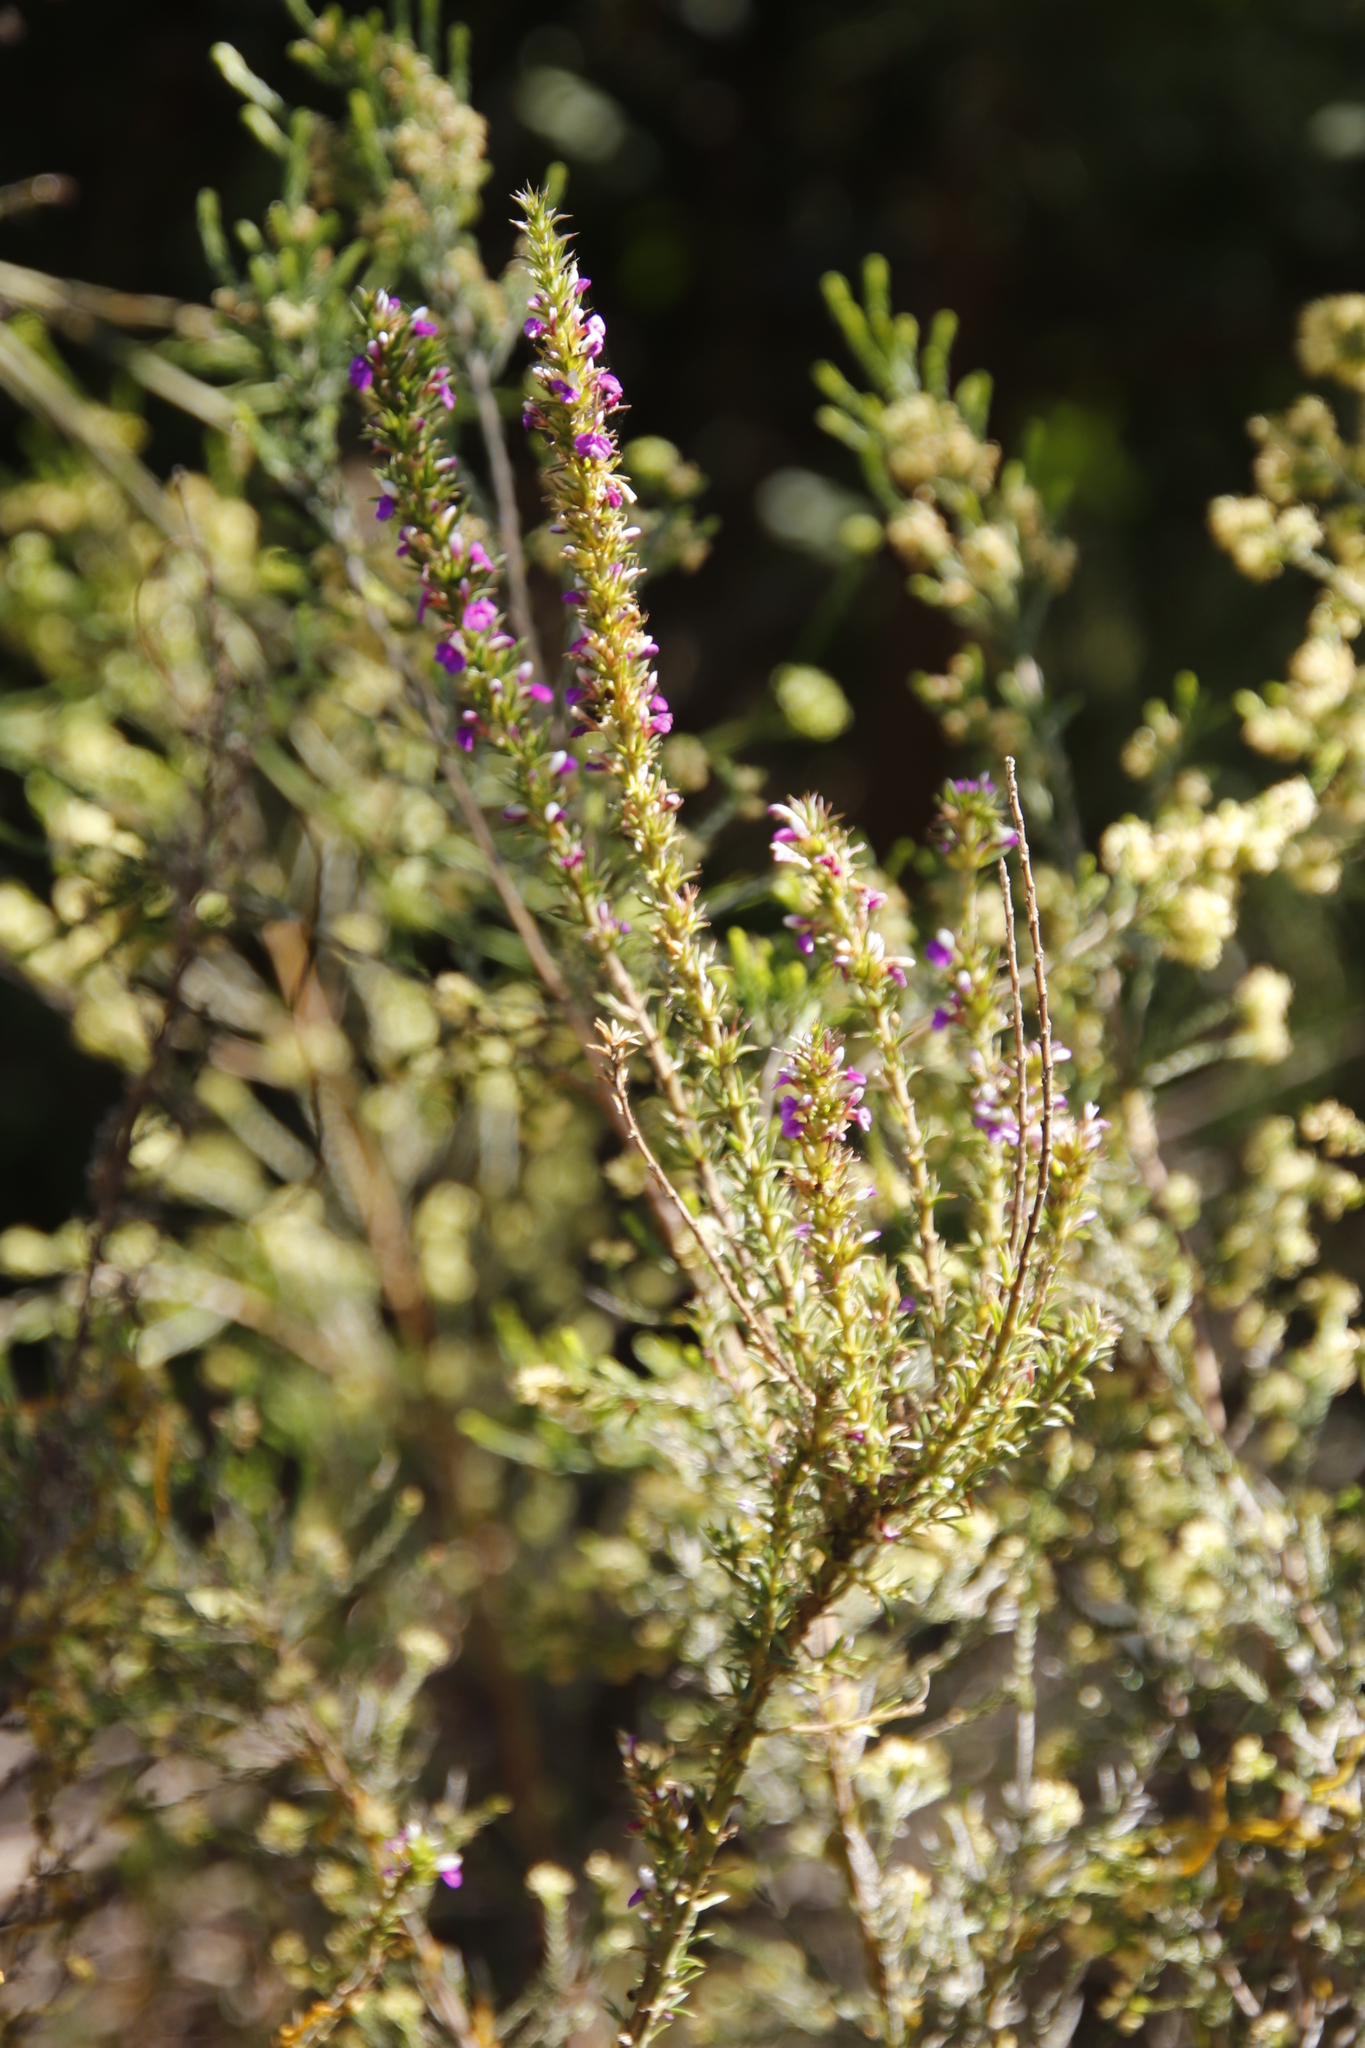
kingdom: Plantae
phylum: Tracheophyta
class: Magnoliopsida
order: Fabales
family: Polygalaceae
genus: Muraltia
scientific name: Muraltia heisteria
